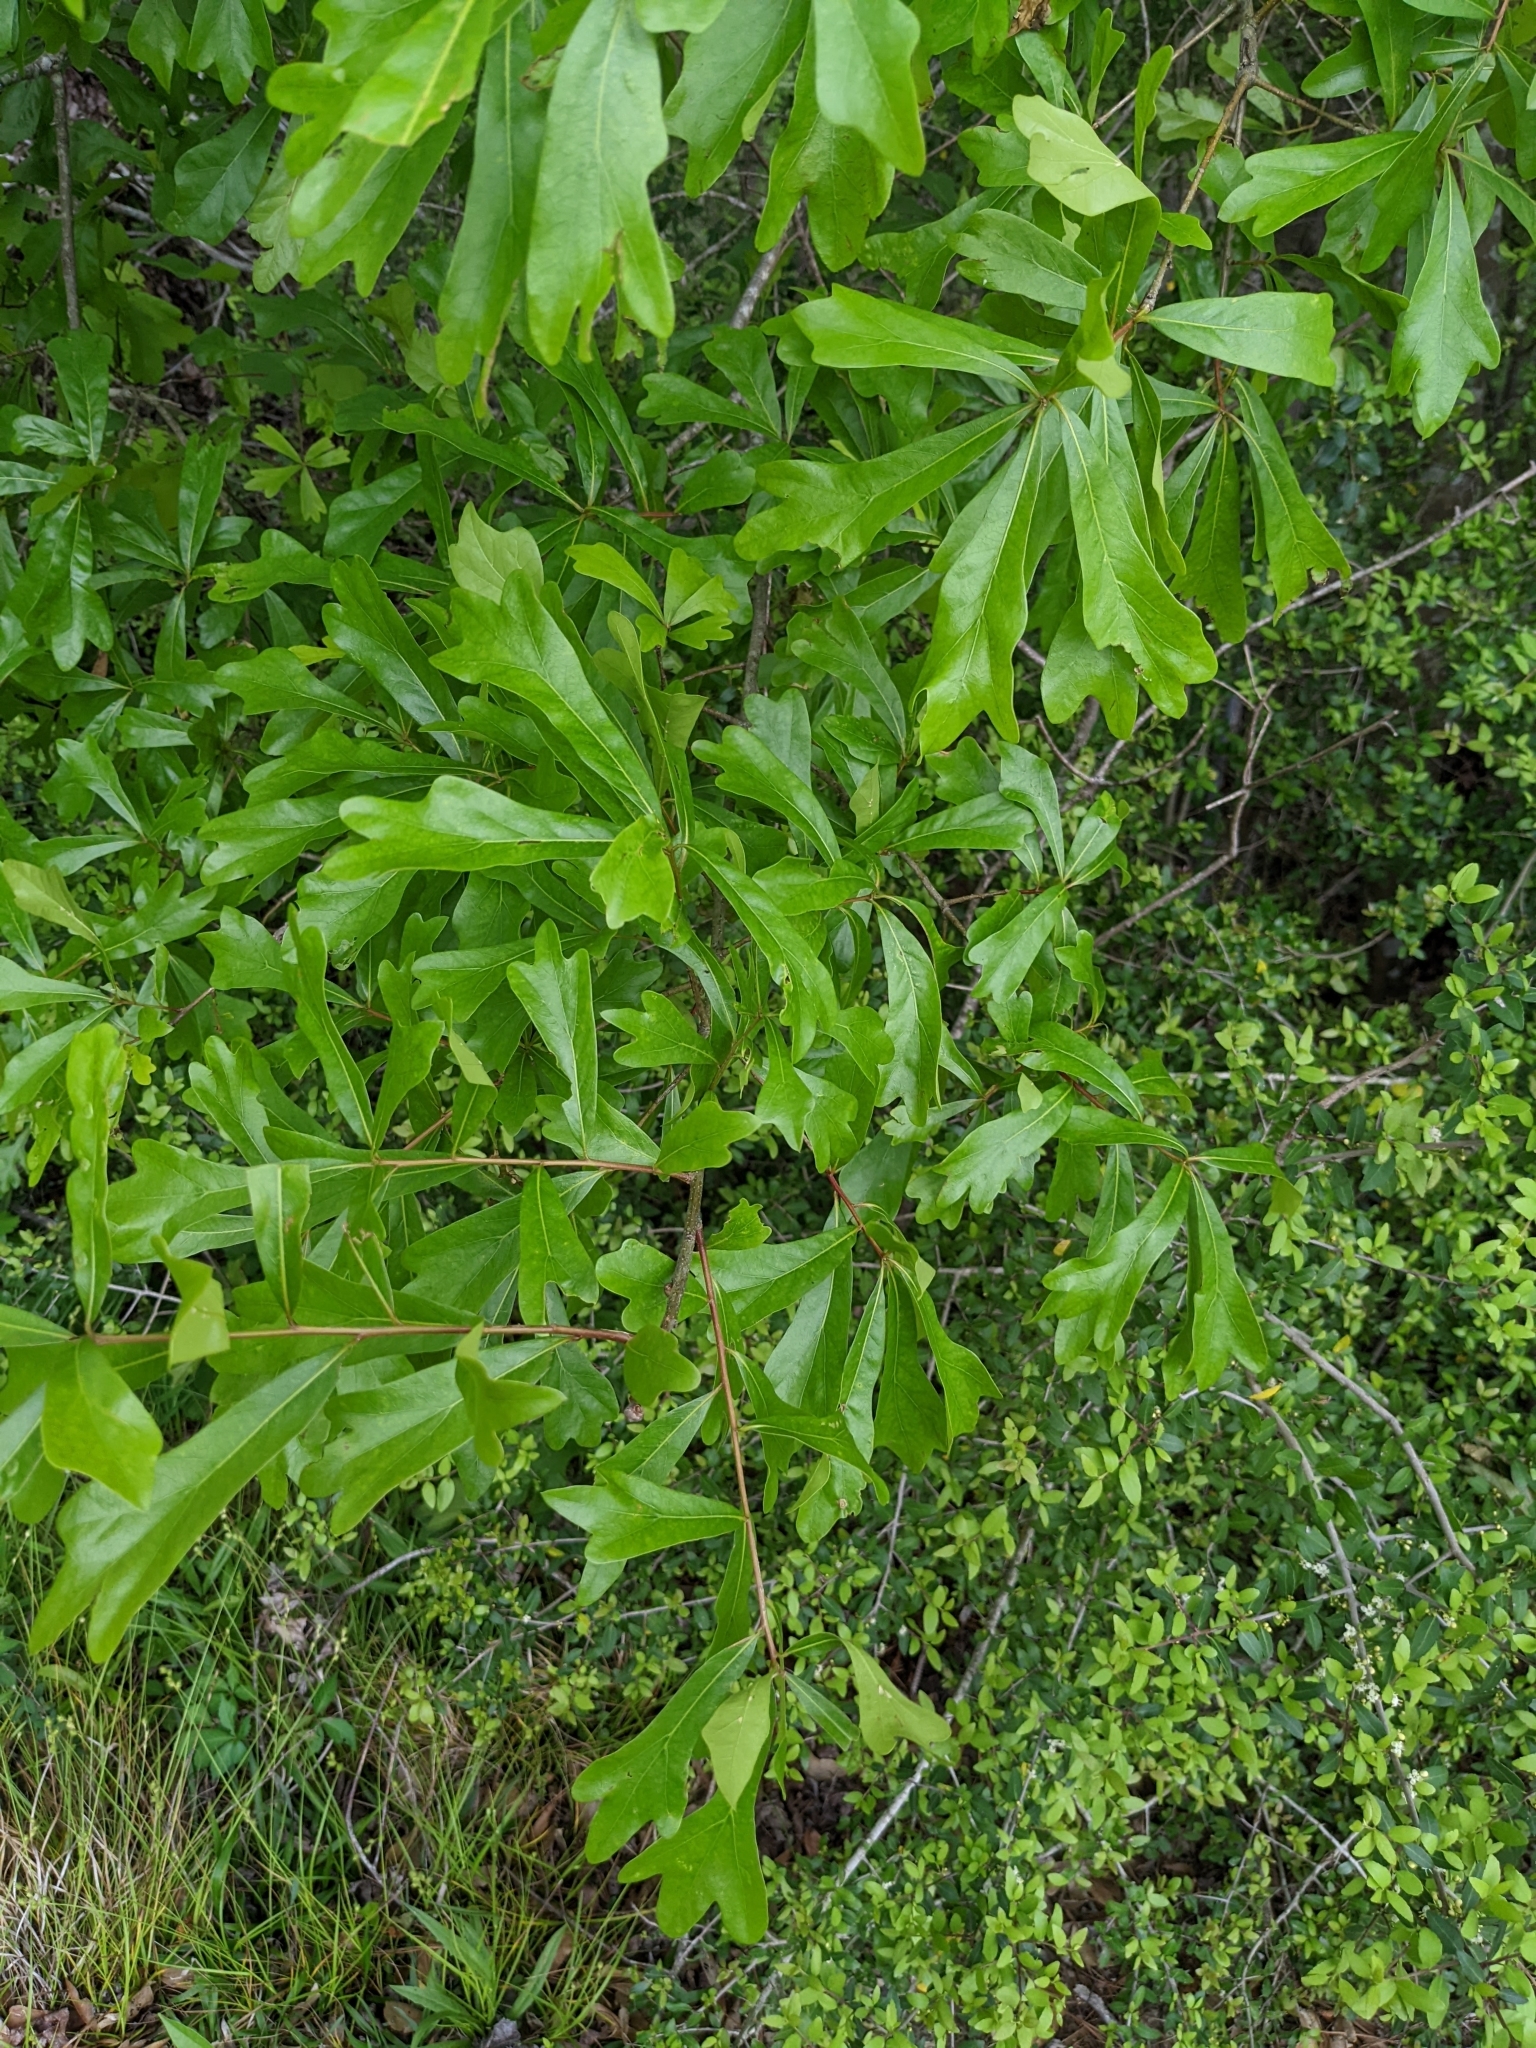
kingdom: Plantae
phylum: Tracheophyta
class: Magnoliopsida
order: Fagales
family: Fagaceae
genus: Quercus
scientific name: Quercus nigra
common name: Water oak
